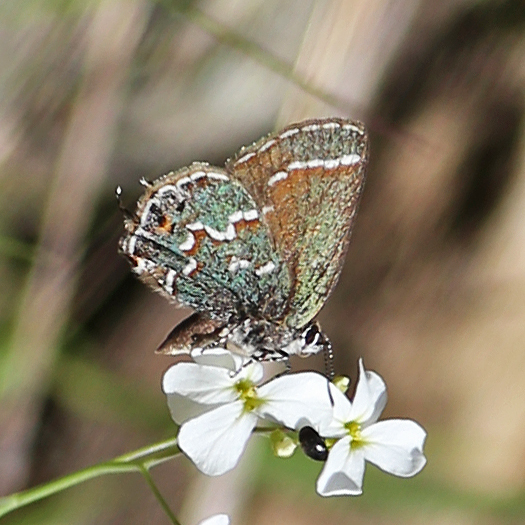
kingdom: Animalia
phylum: Arthropoda
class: Insecta
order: Lepidoptera
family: Lycaenidae
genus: Mitoura
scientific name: Mitoura gryneus
